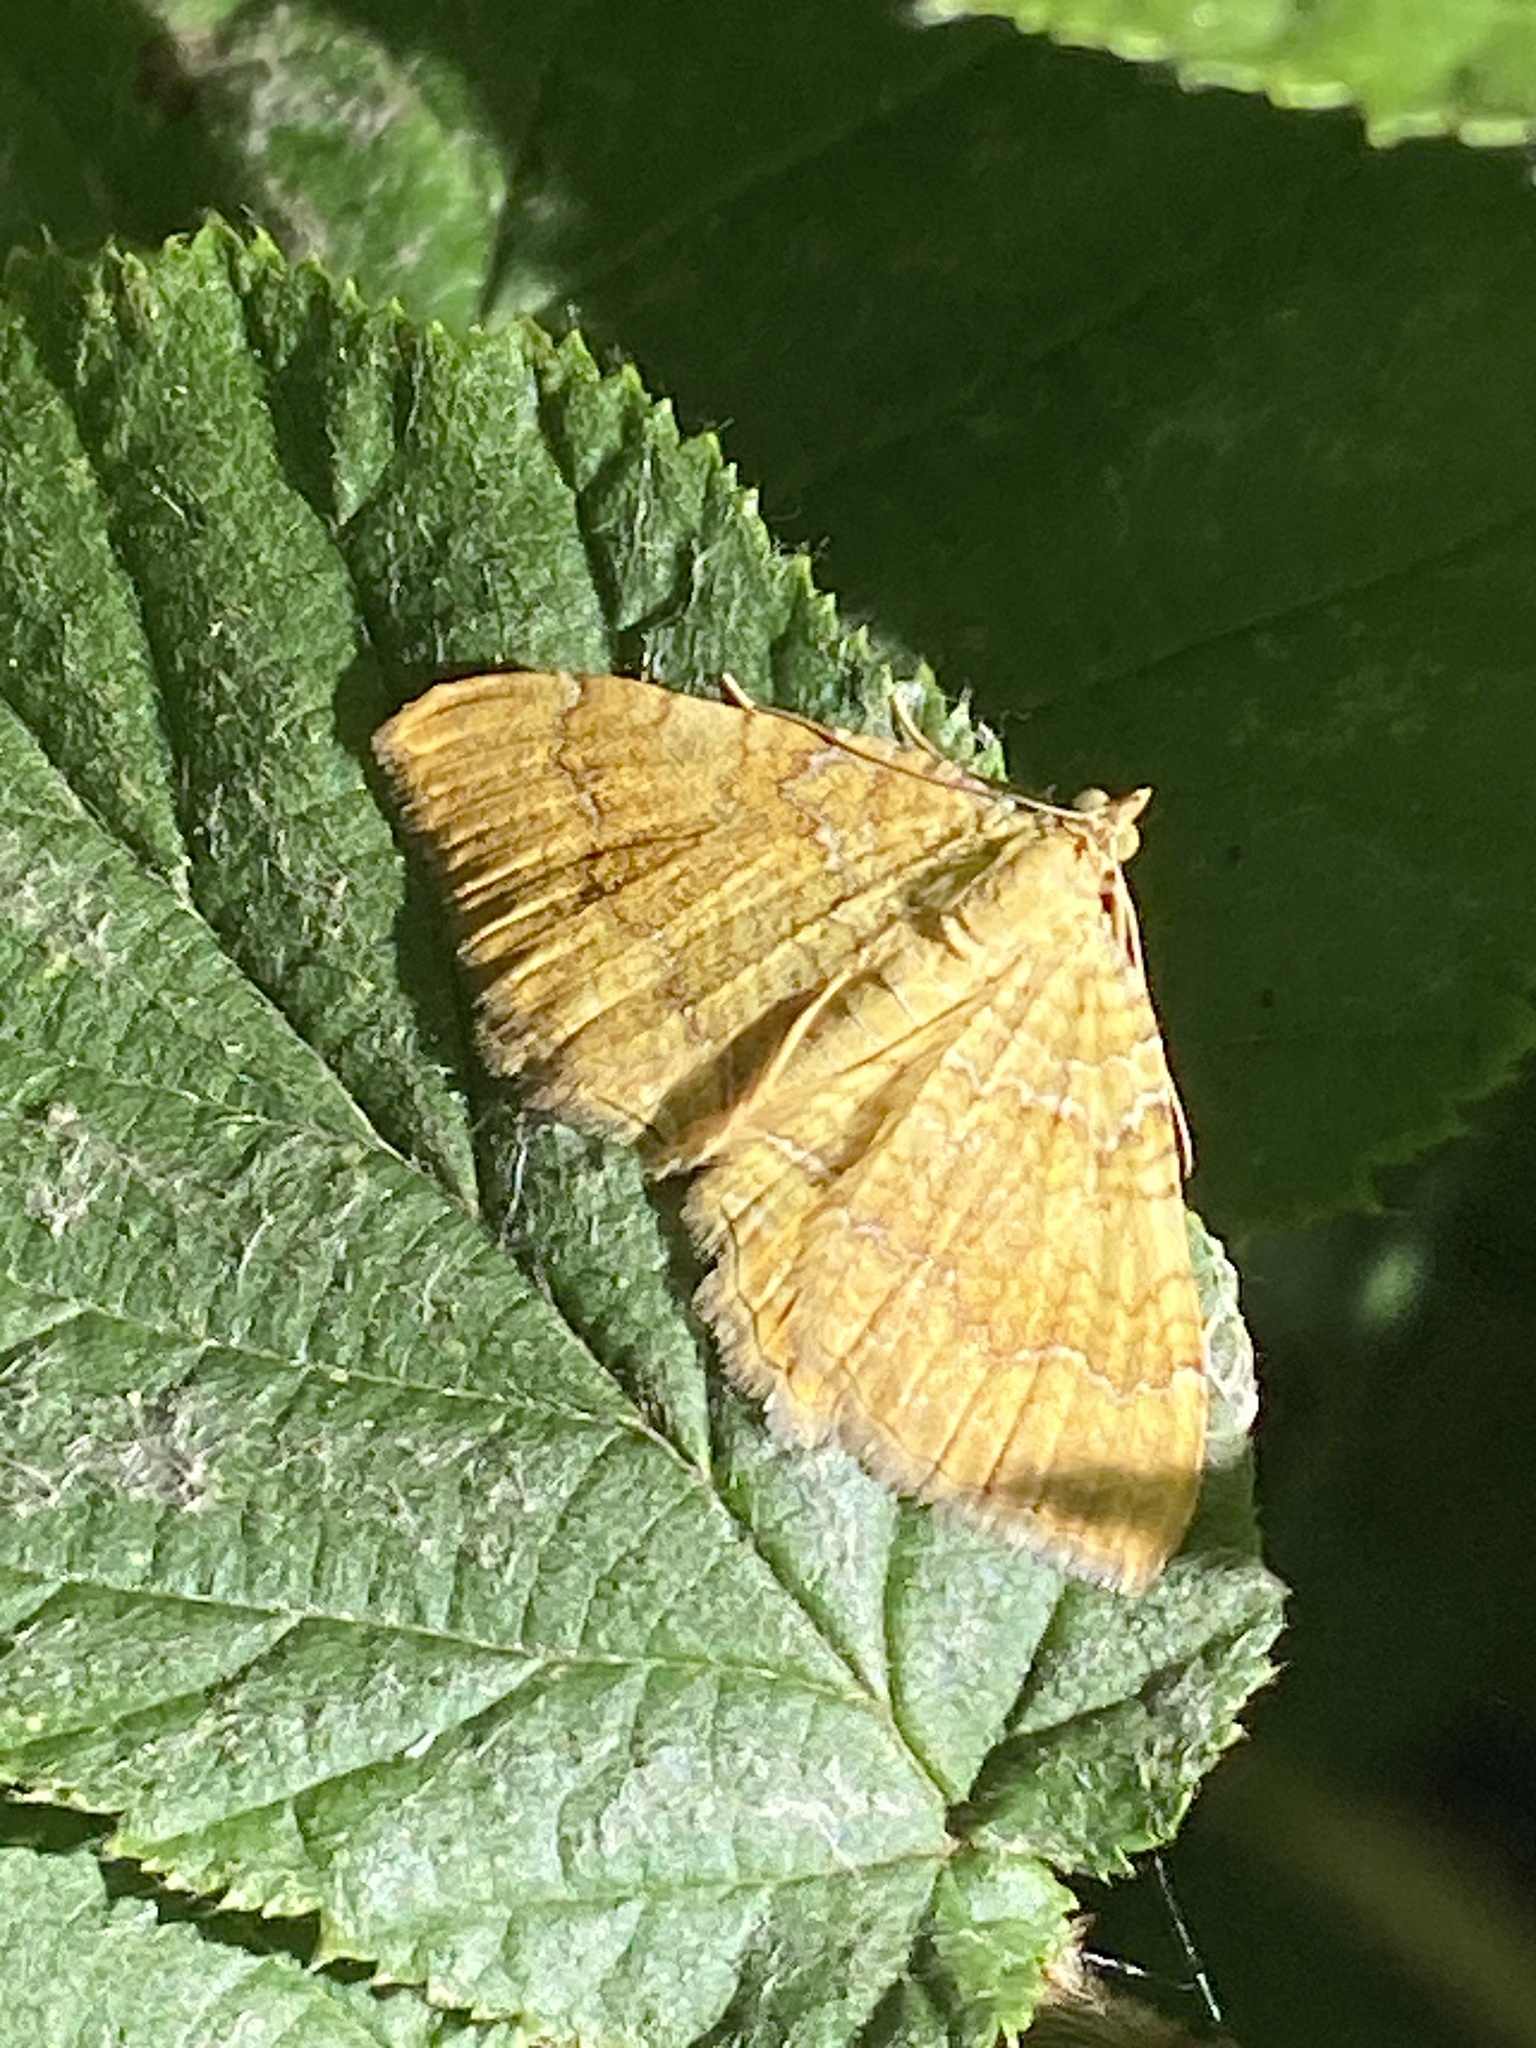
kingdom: Animalia
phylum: Arthropoda
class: Insecta
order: Lepidoptera
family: Geometridae
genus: Camptogramma
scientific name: Camptogramma bilineata
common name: Yellow shell
